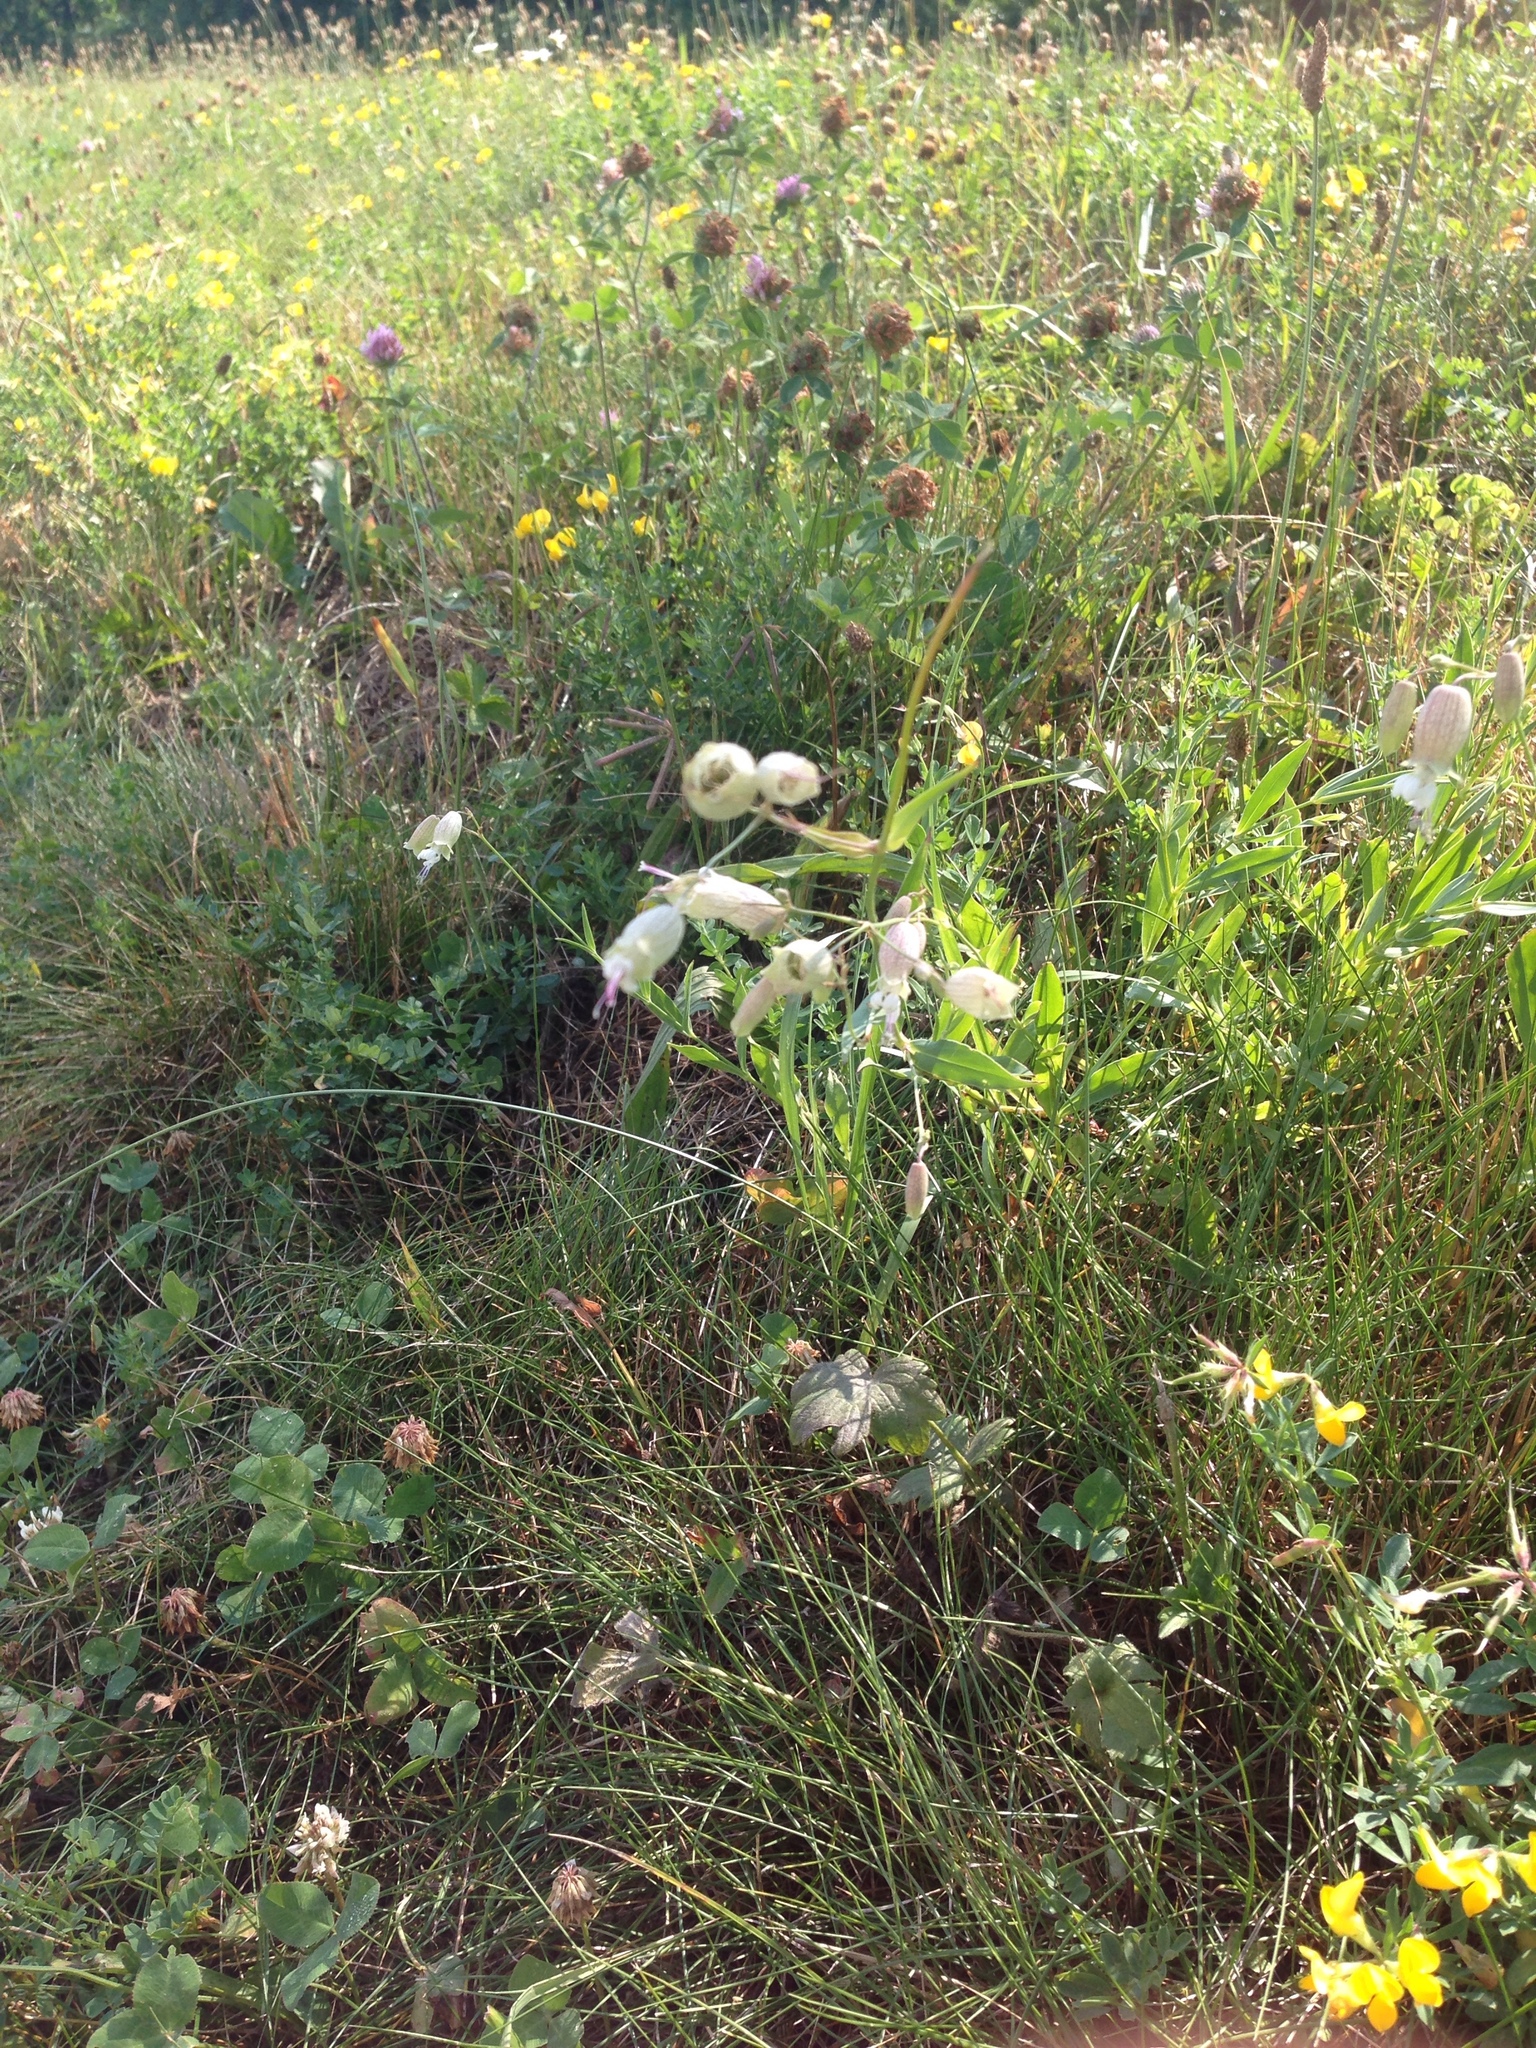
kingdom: Plantae
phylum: Tracheophyta
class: Magnoliopsida
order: Caryophyllales
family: Caryophyllaceae
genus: Silene
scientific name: Silene vulgaris
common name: Bladder campion
